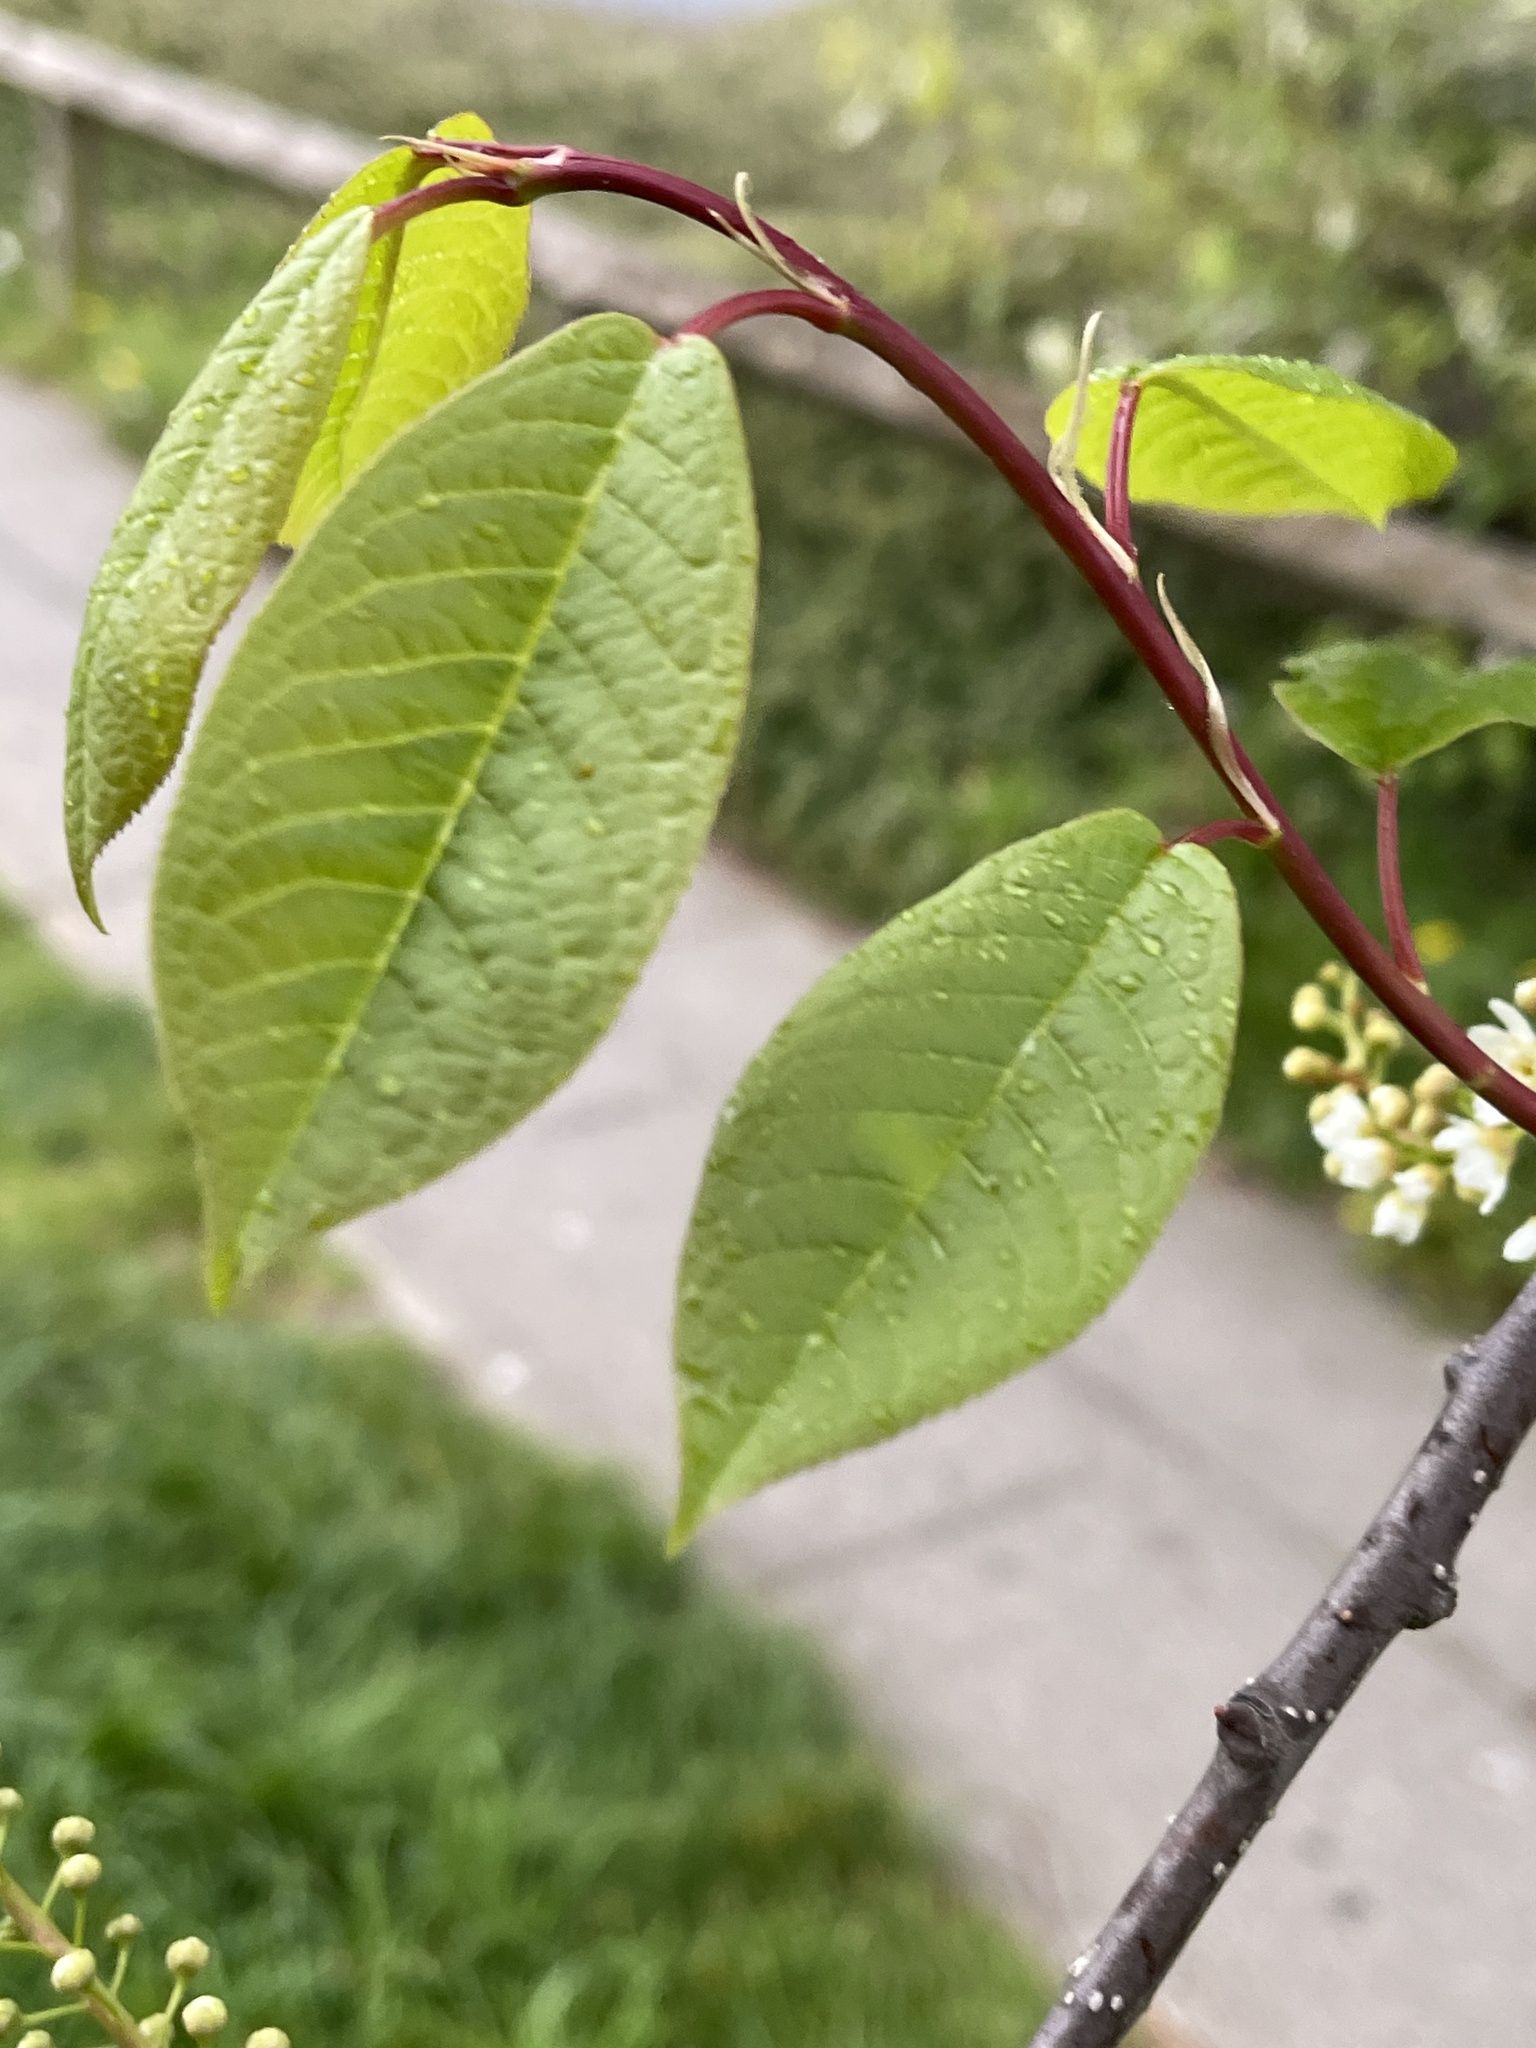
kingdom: Plantae
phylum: Tracheophyta
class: Magnoliopsida
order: Rosales
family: Rosaceae
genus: Prunus
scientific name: Prunus padus
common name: Bird cherry
